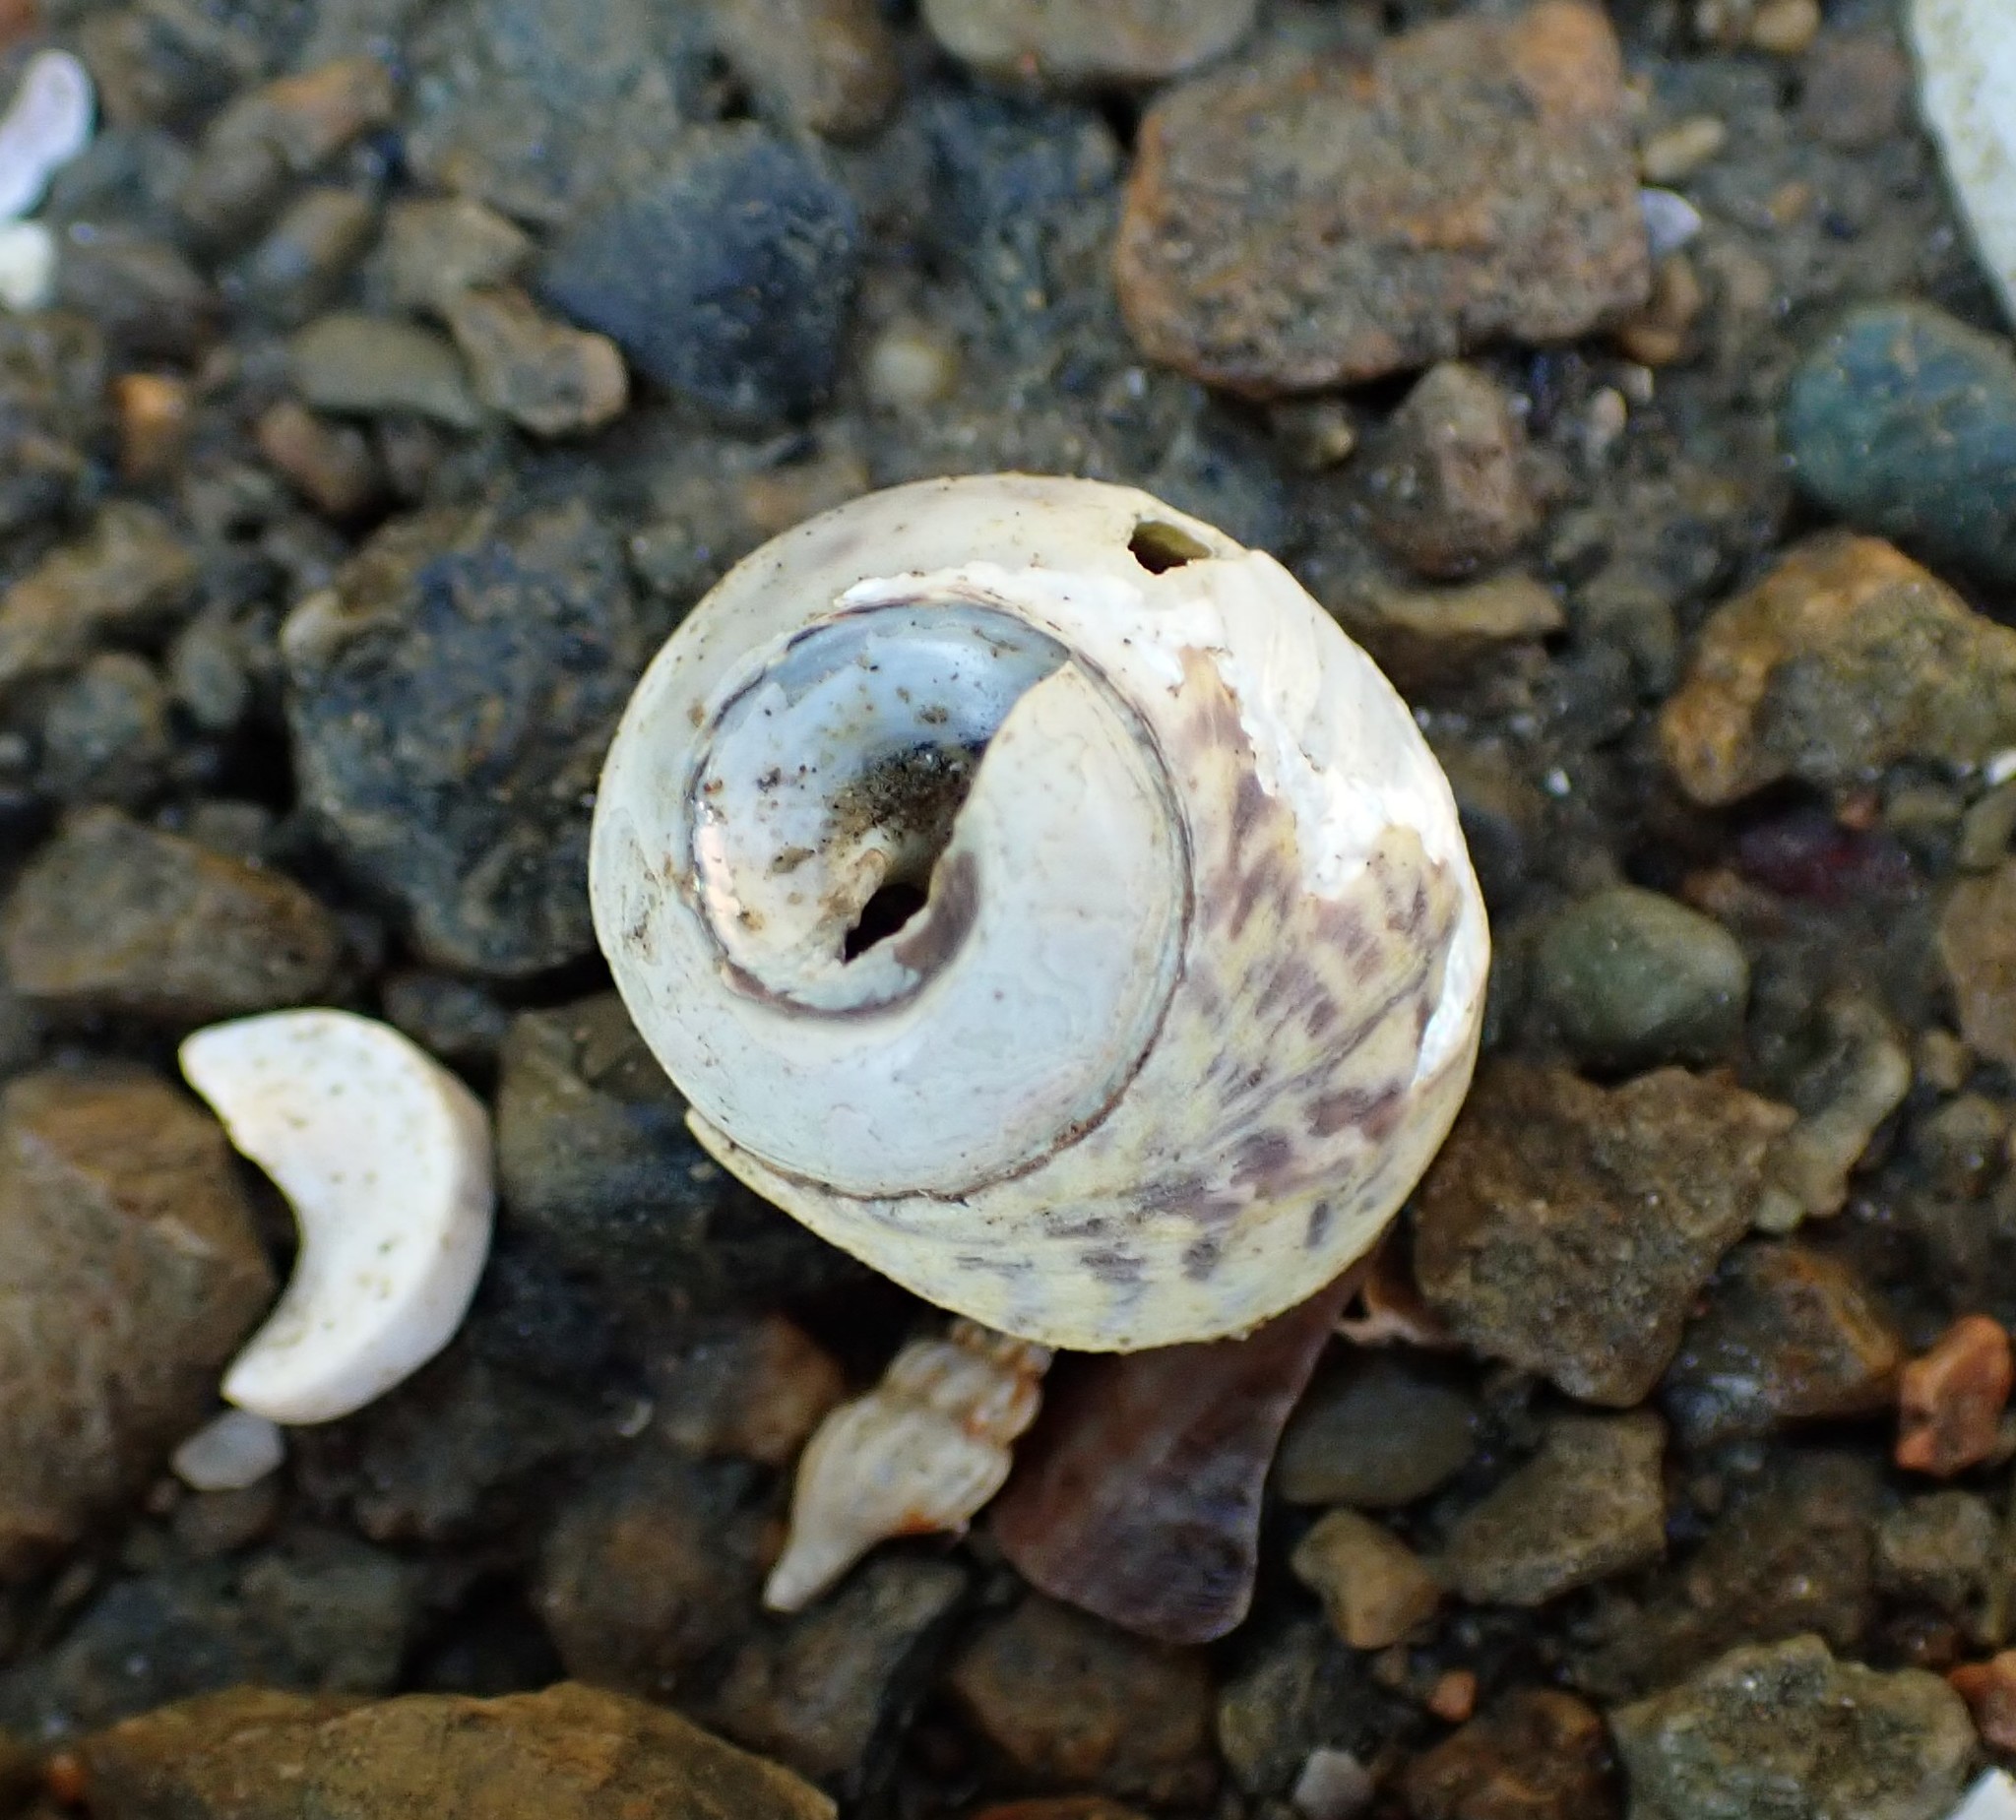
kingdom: Animalia
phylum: Mollusca
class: Gastropoda
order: Trochida
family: Trochidae
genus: Diloma
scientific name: Diloma subrostratum
